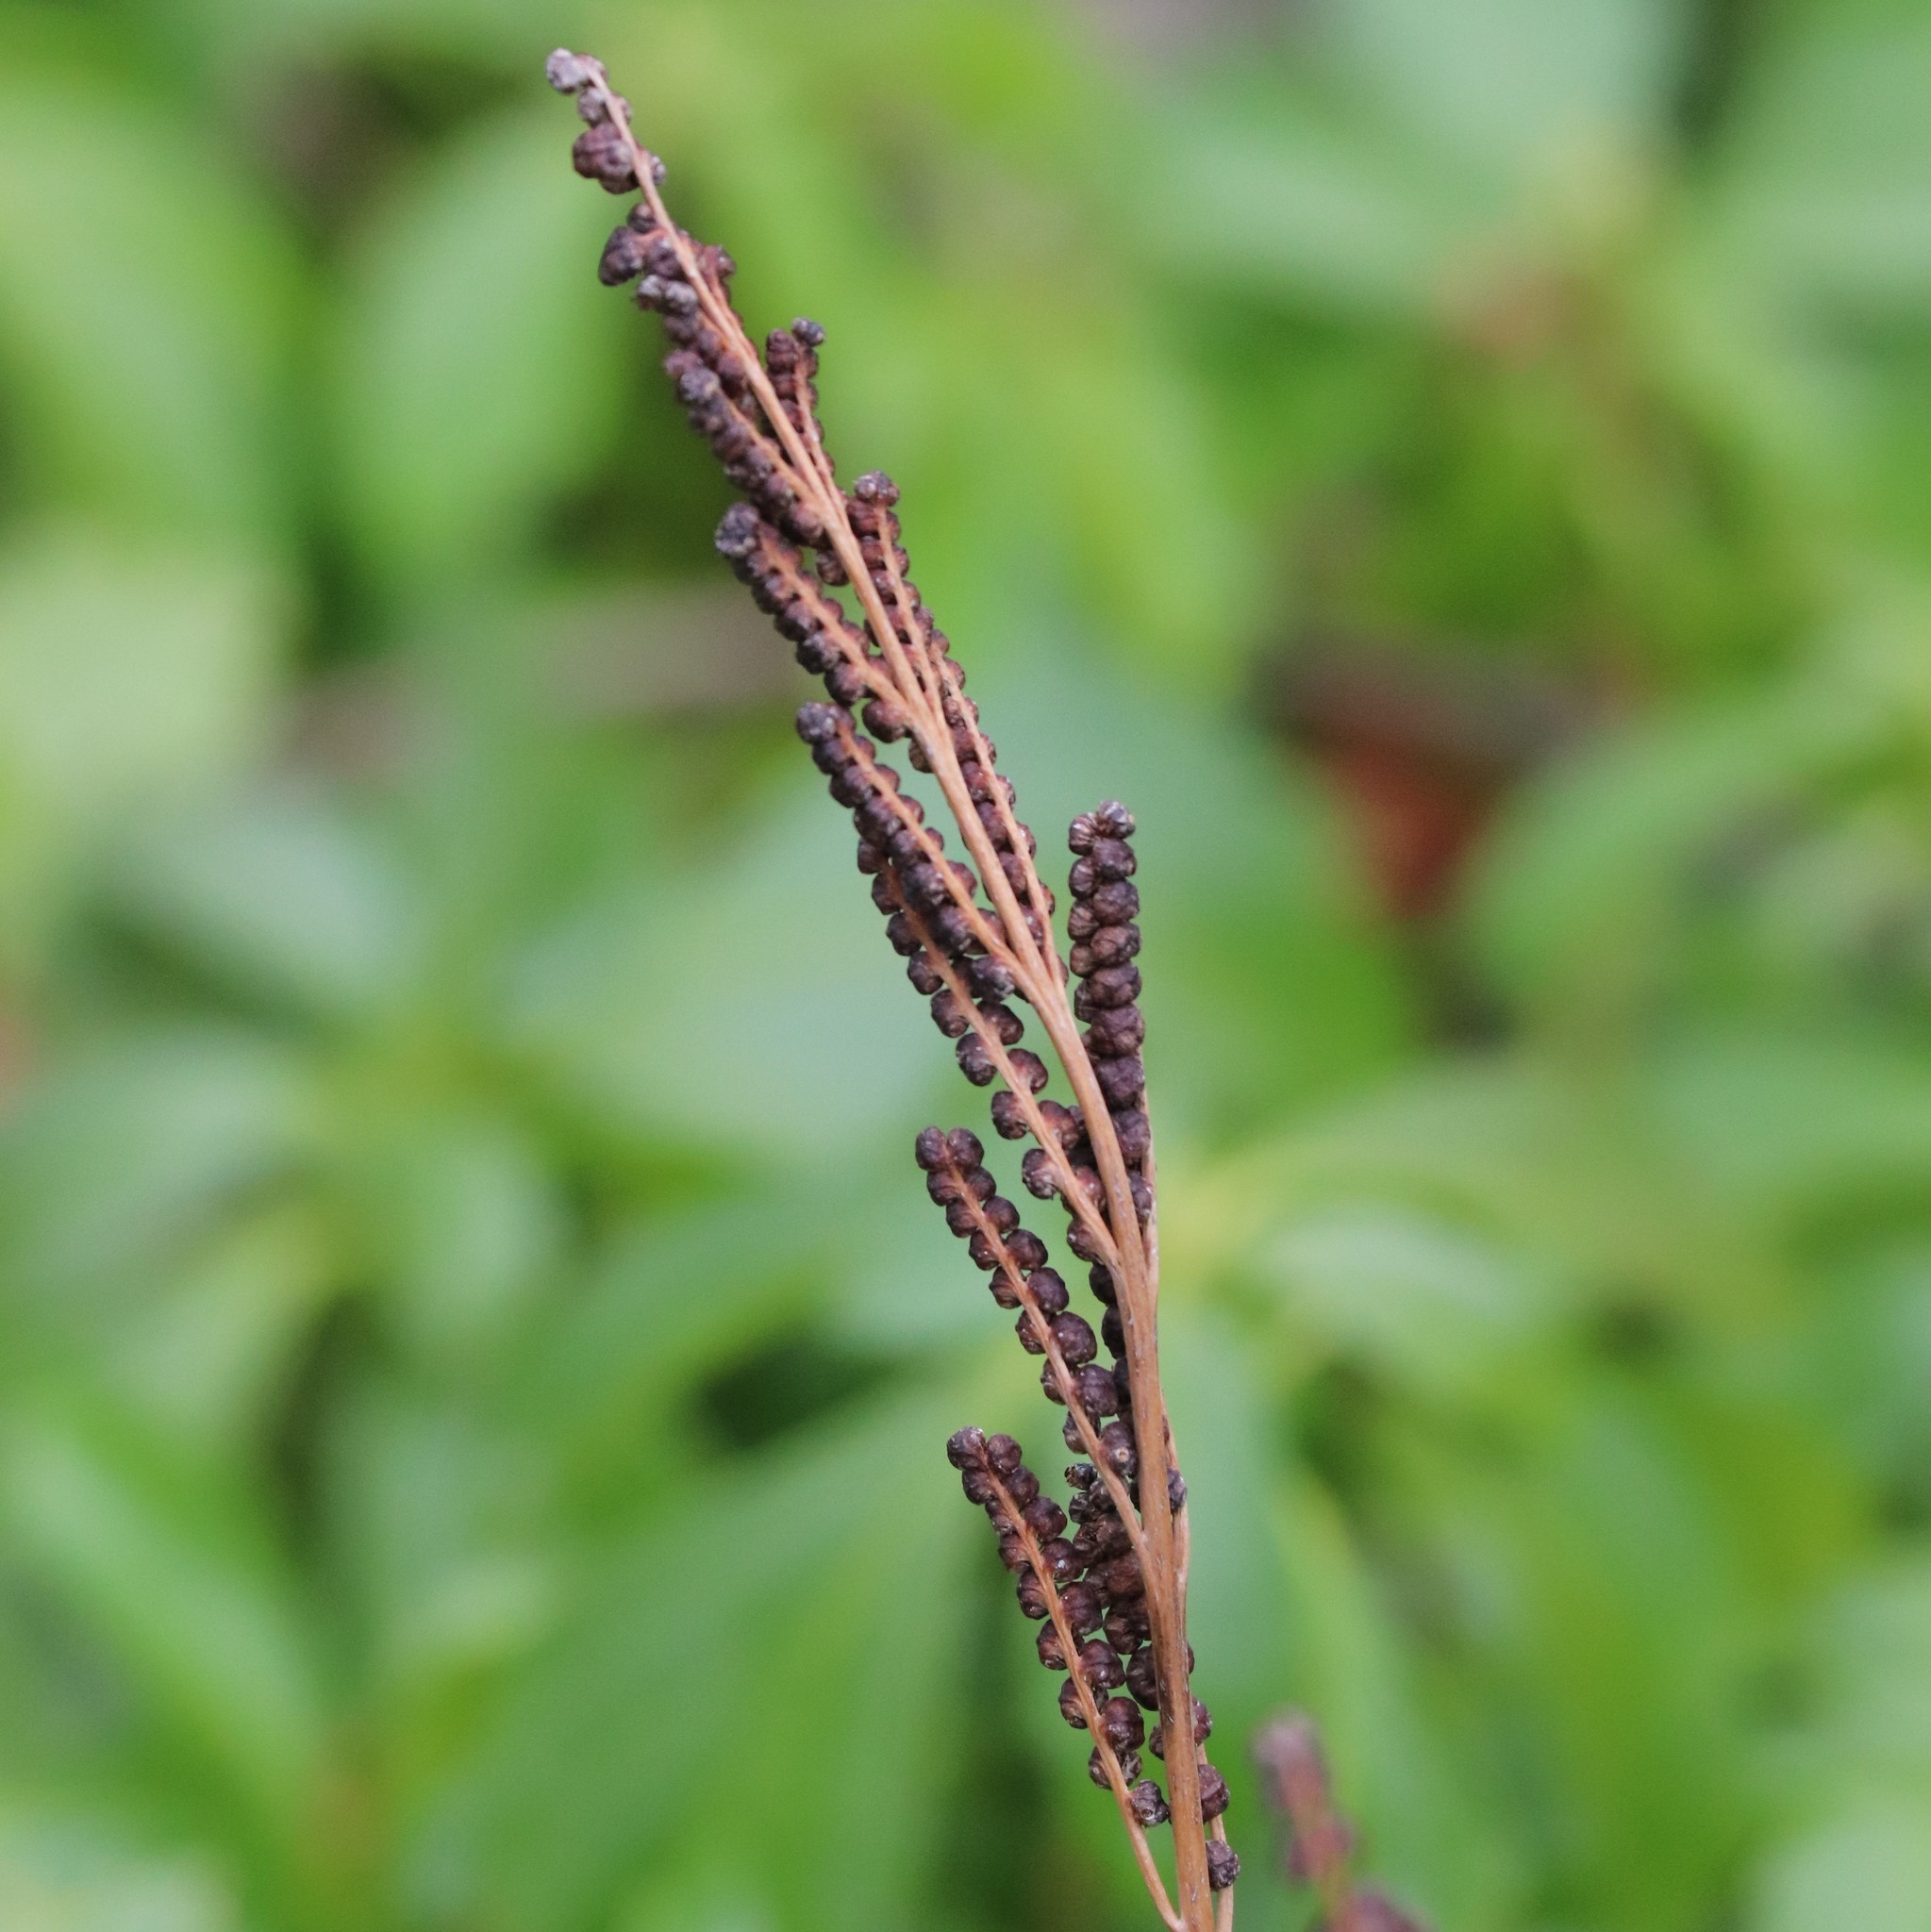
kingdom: Plantae
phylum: Tracheophyta
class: Polypodiopsida
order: Polypodiales
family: Onocleaceae
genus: Onoclea
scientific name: Onoclea sensibilis
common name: Sensitive fern
